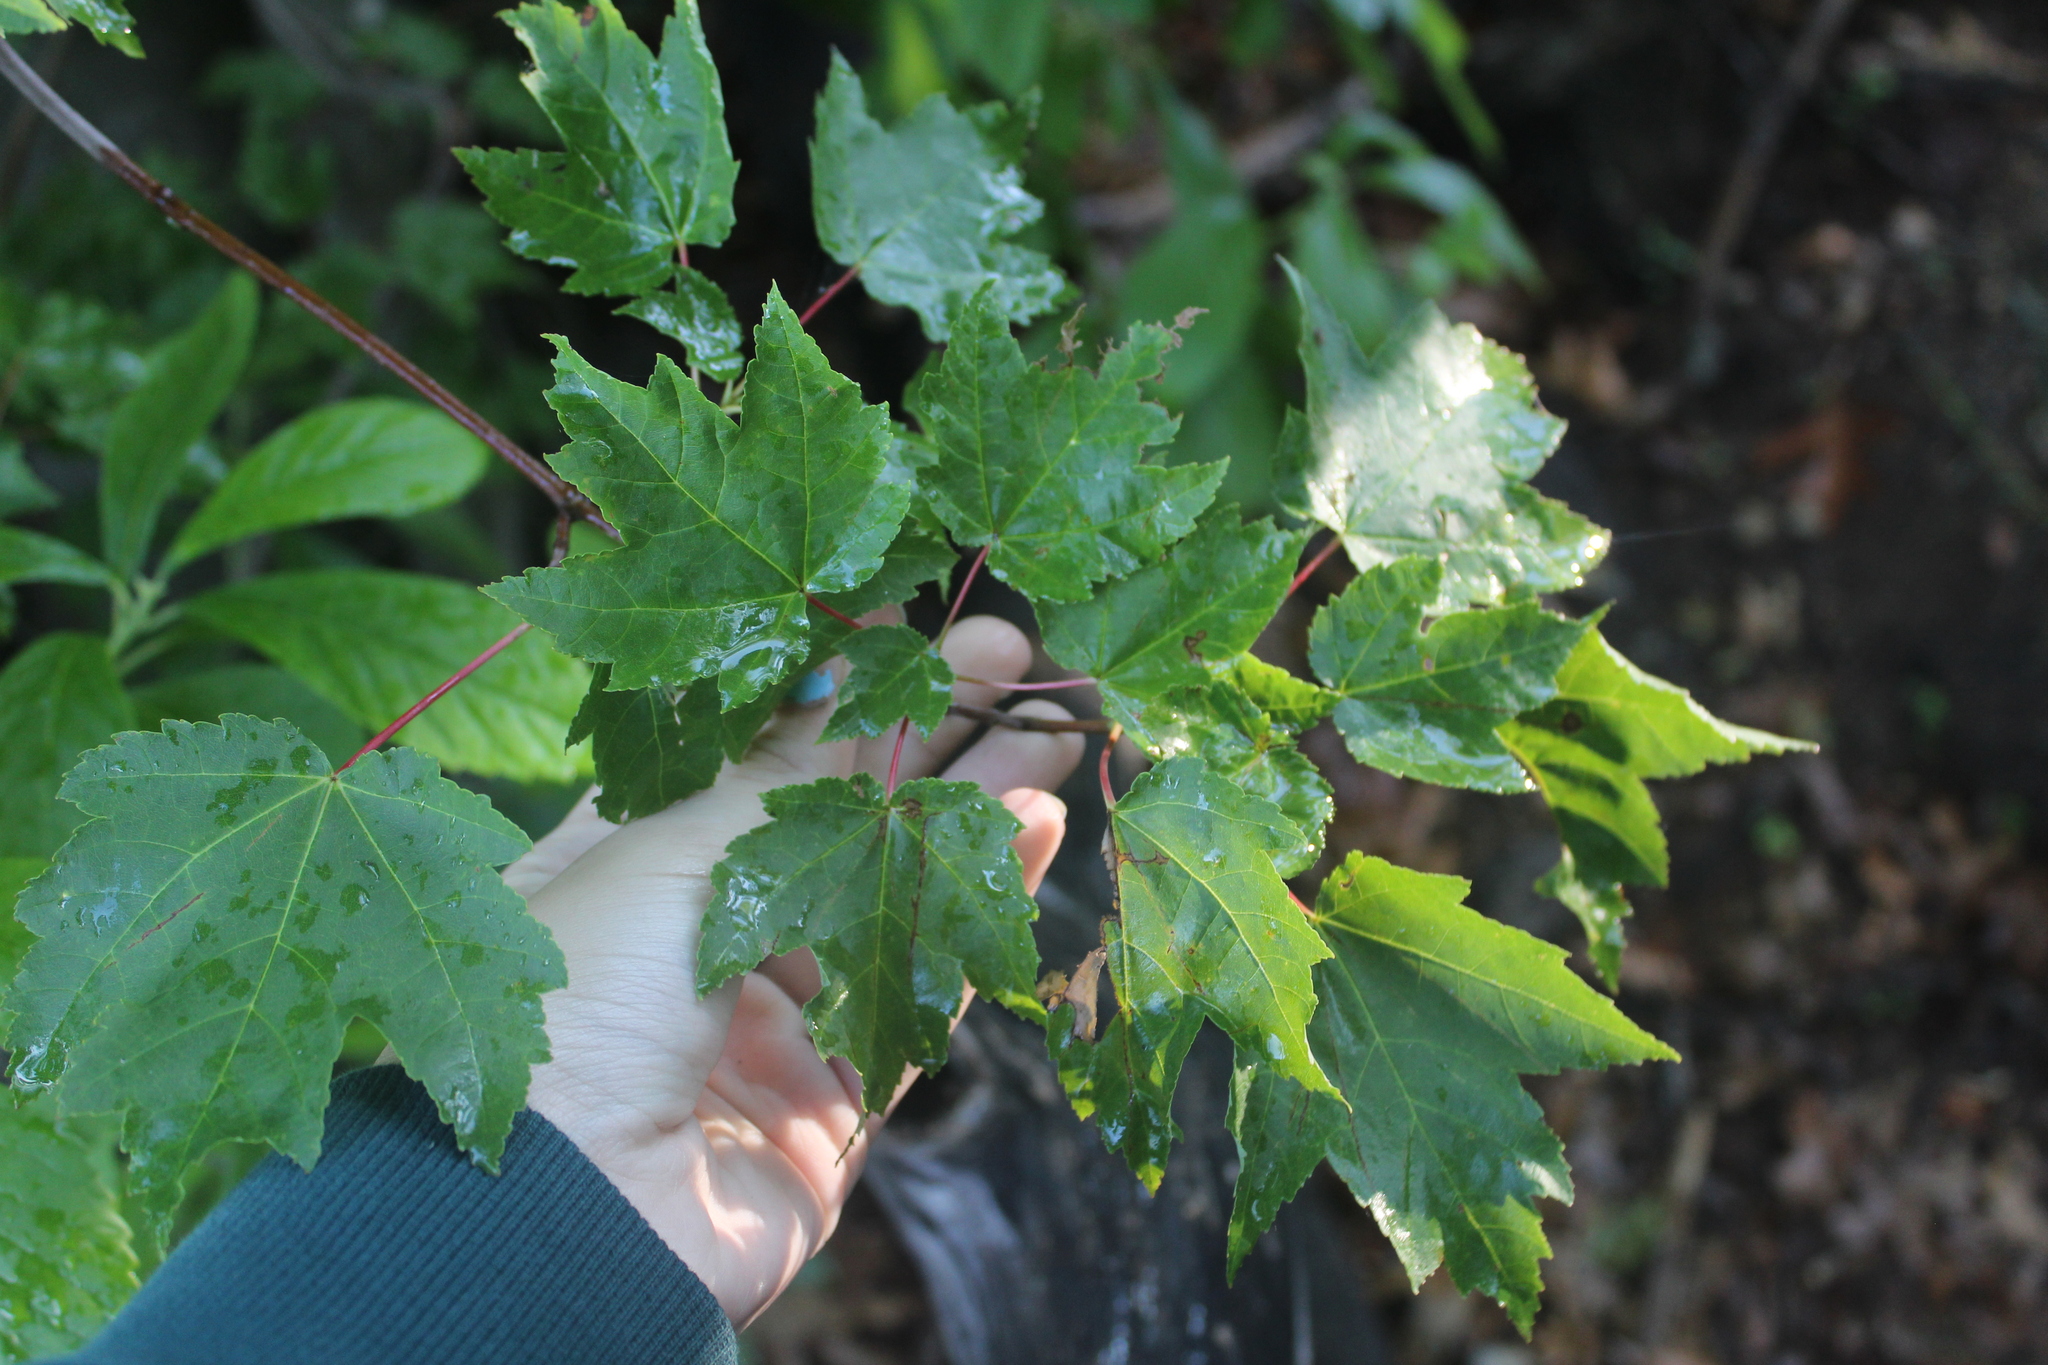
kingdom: Plantae
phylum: Tracheophyta
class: Magnoliopsida
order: Sapindales
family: Sapindaceae
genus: Acer
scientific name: Acer rubrum
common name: Red maple
